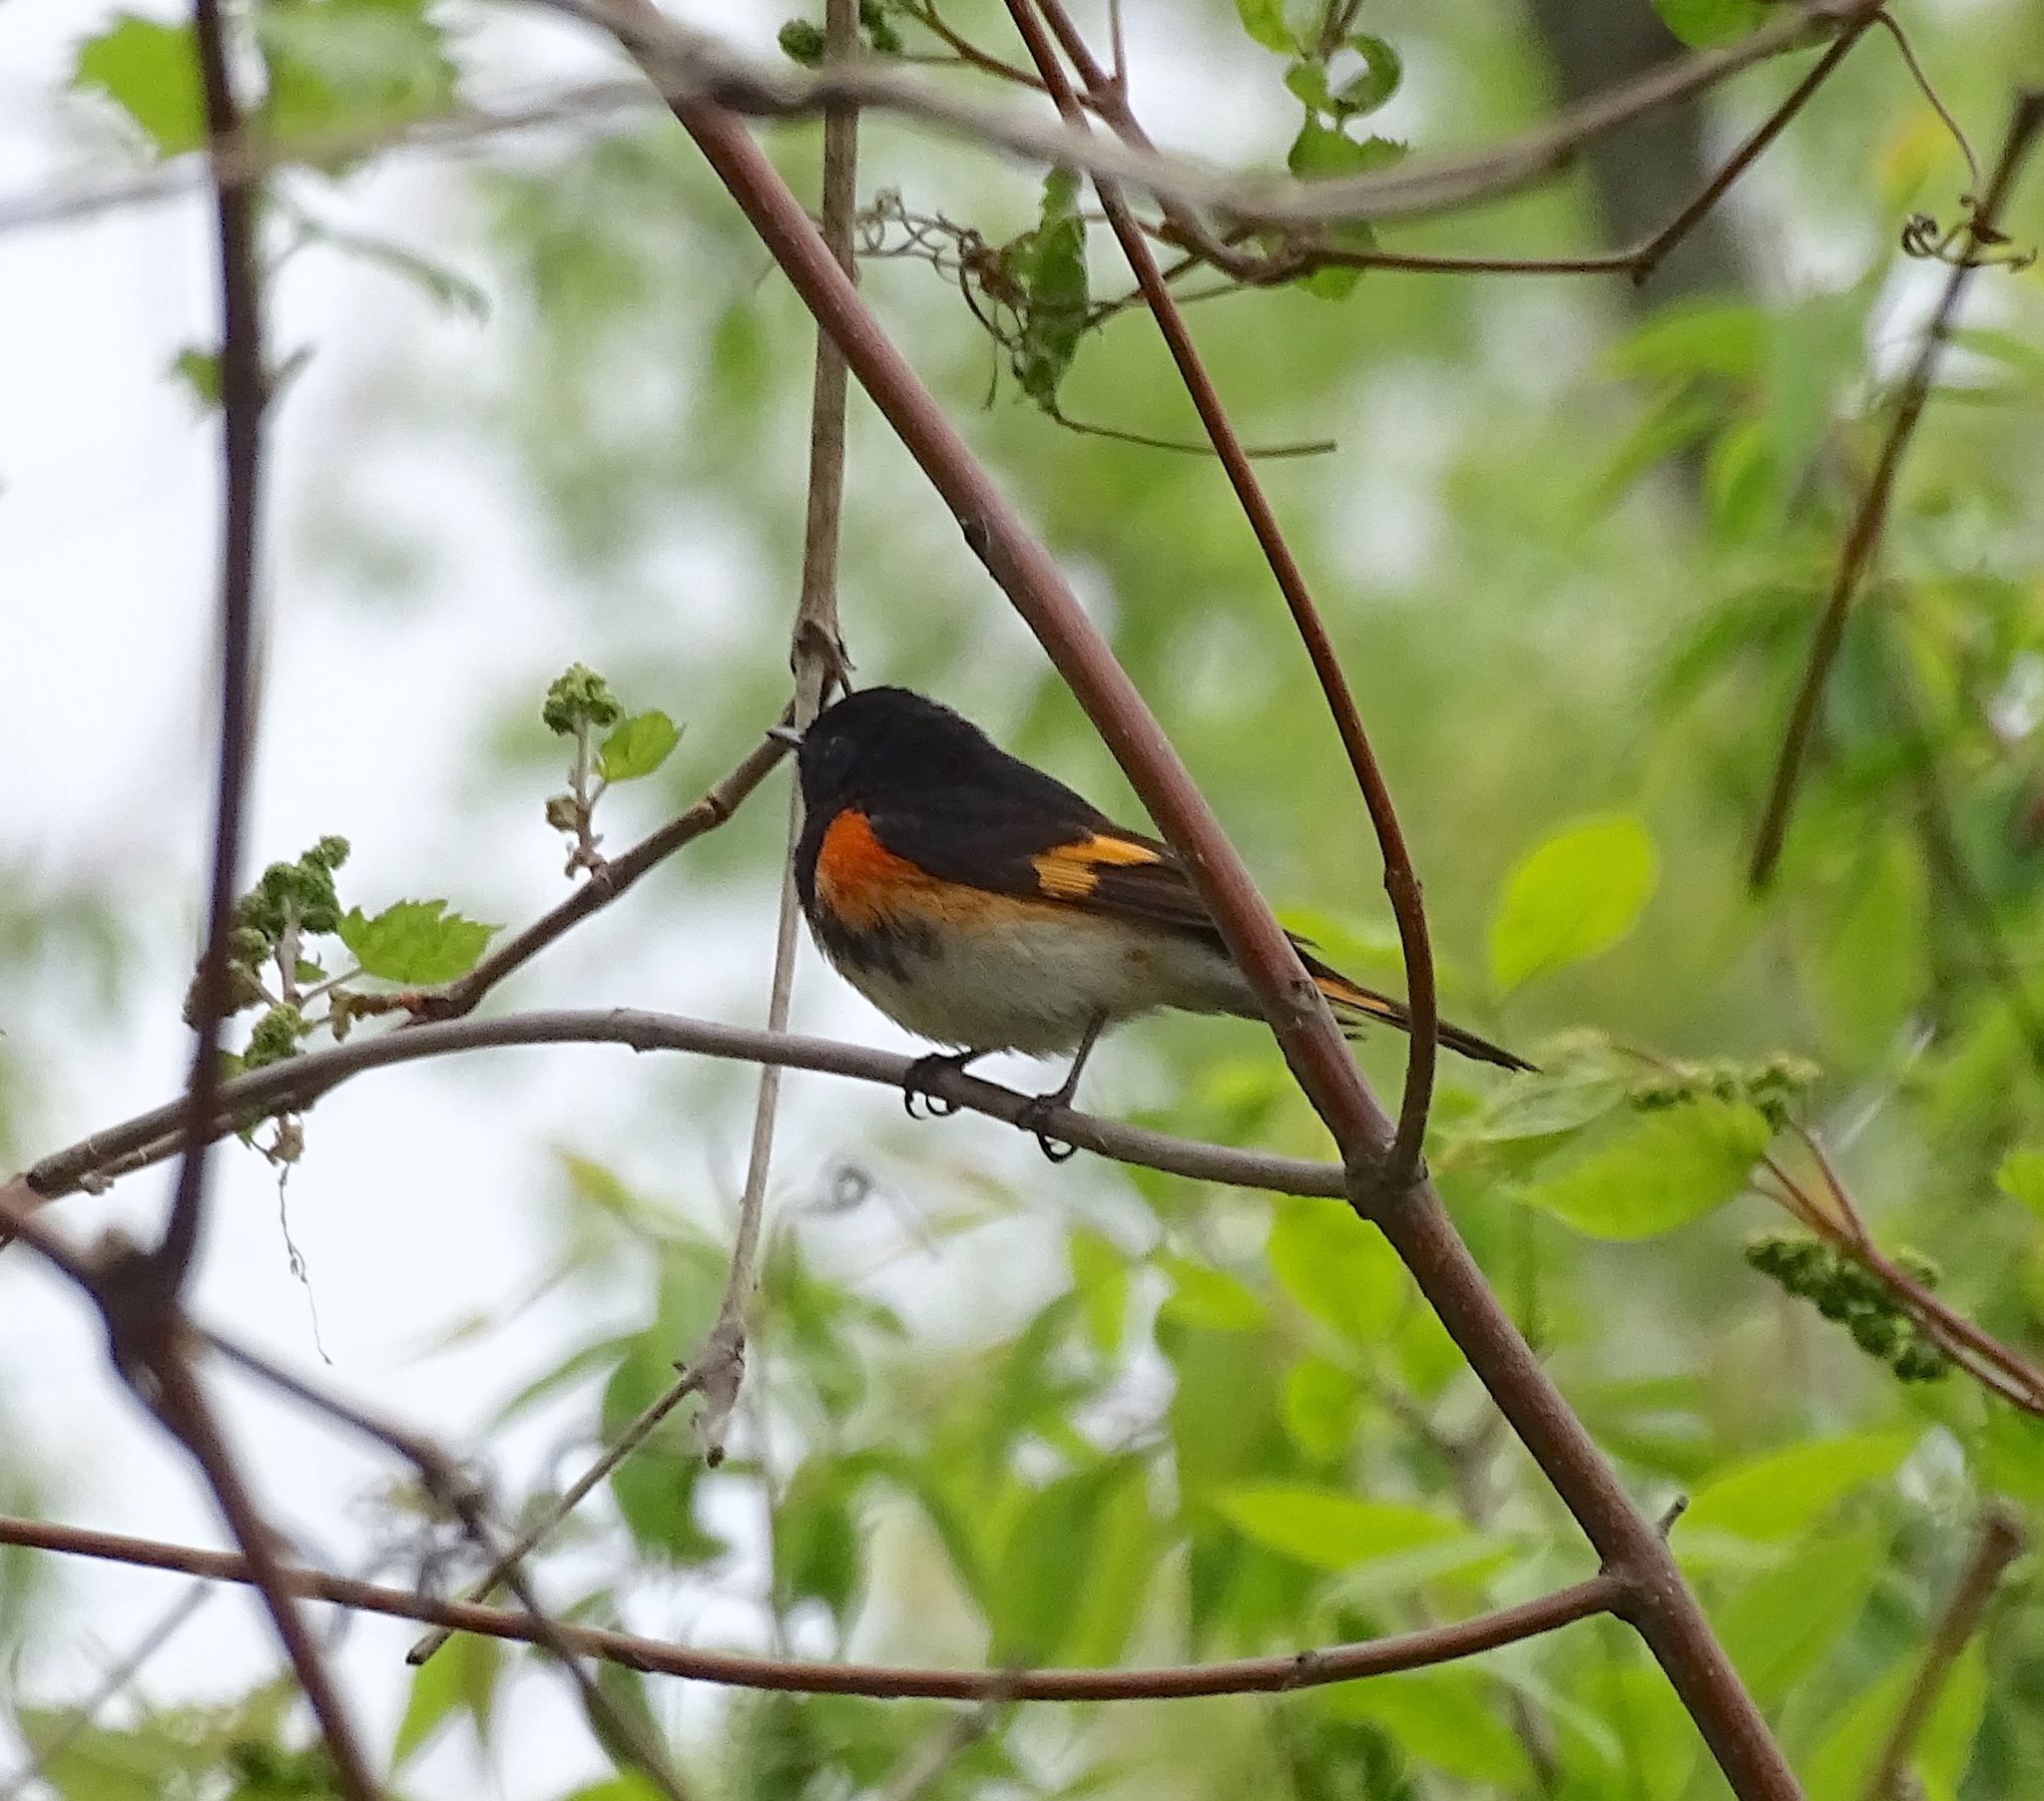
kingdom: Animalia
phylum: Chordata
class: Aves
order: Passeriformes
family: Parulidae
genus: Setophaga
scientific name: Setophaga ruticilla
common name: American redstart
